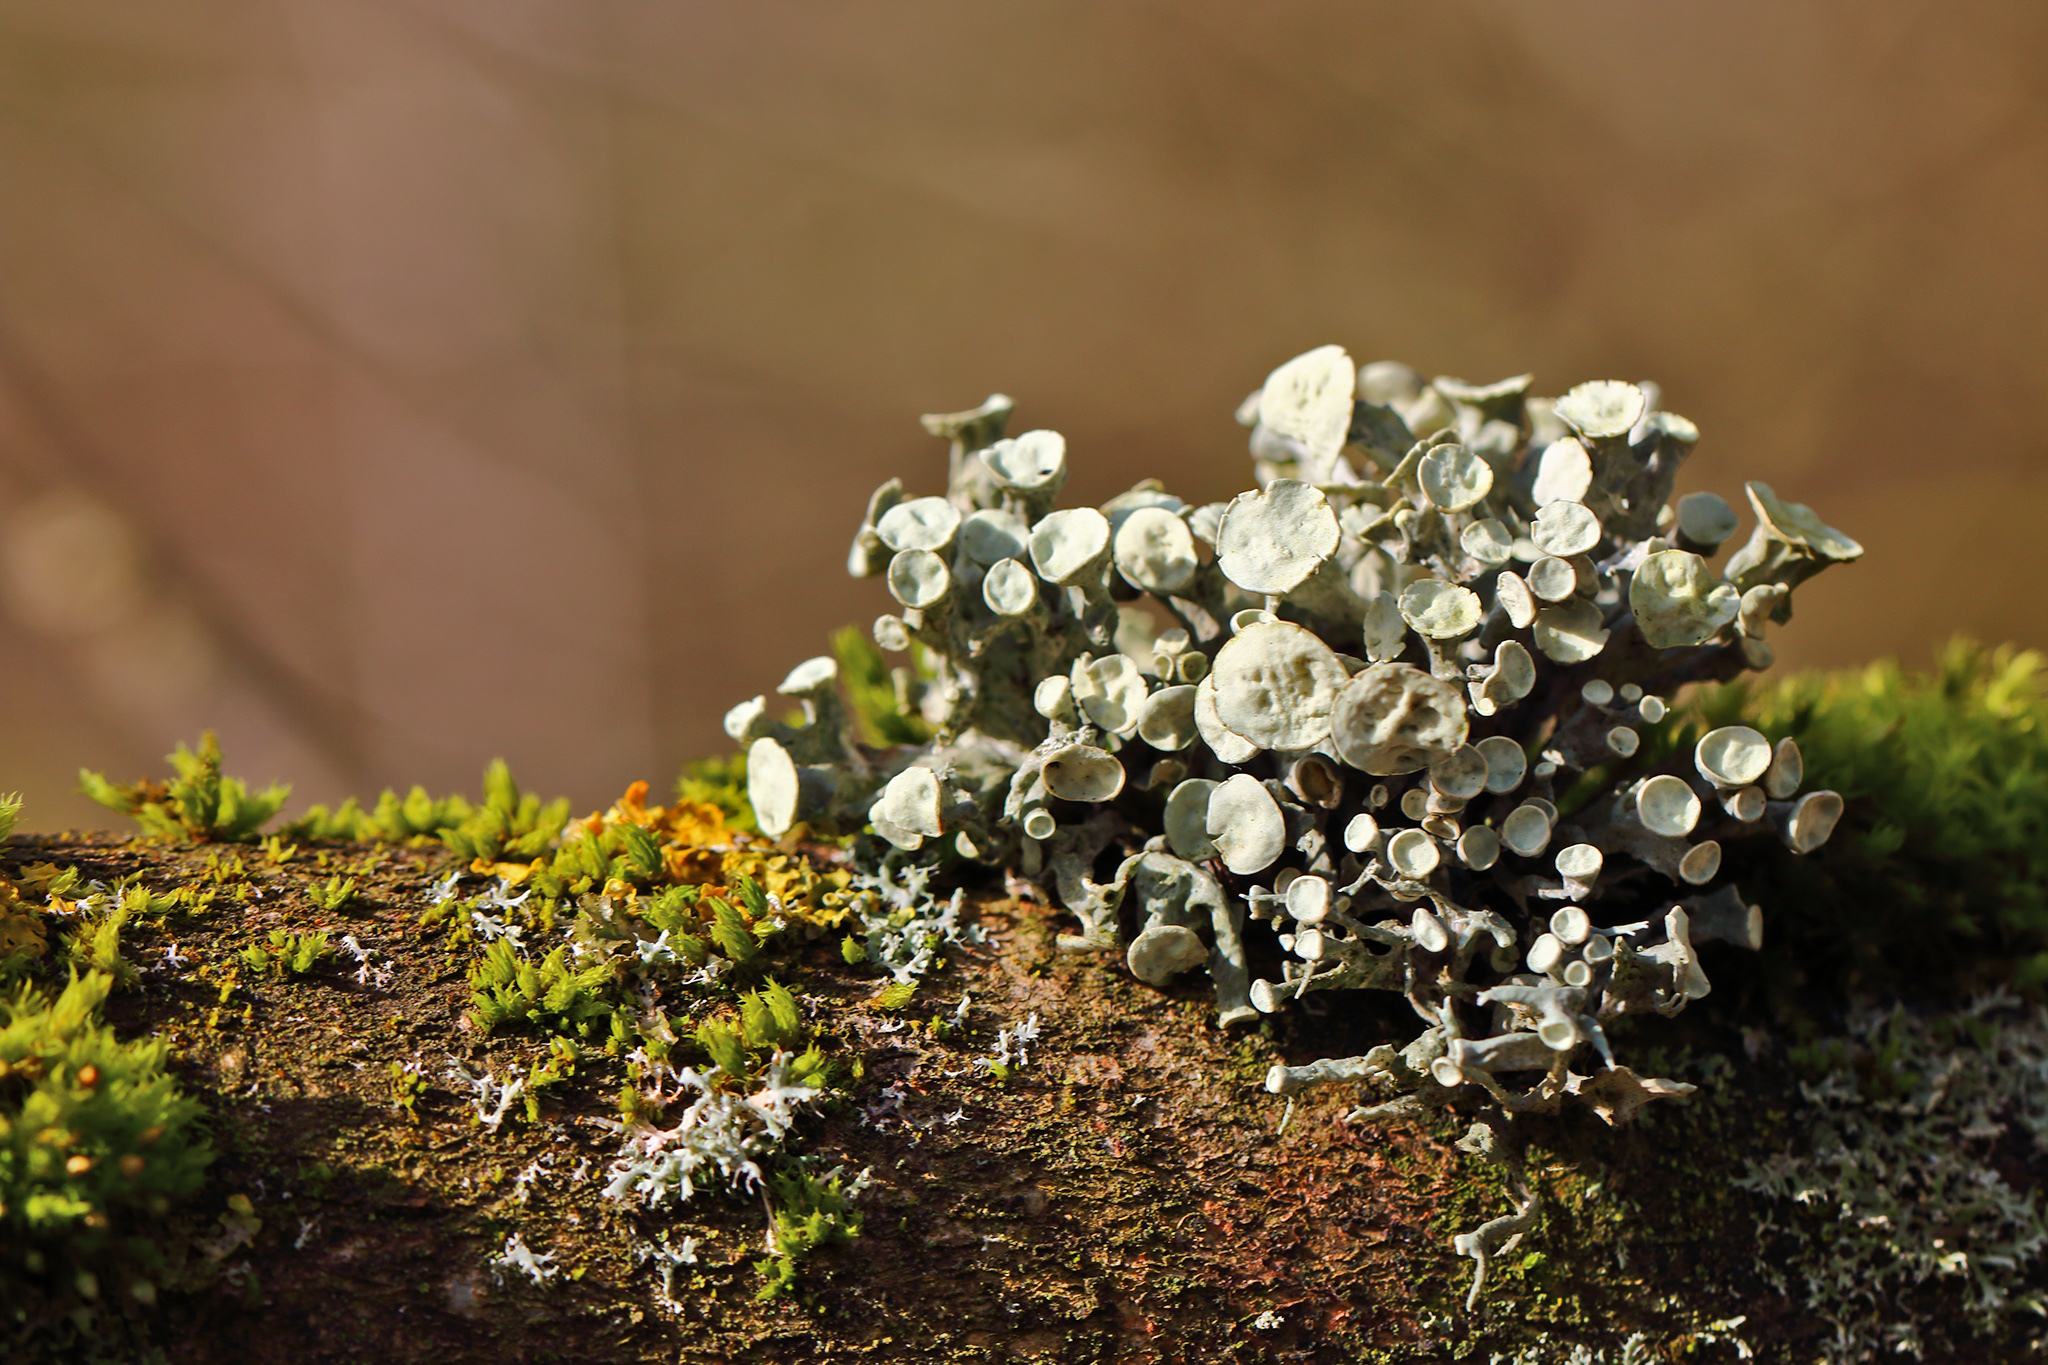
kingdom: Fungi
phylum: Ascomycota
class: Lecanoromycetes
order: Lecanorales
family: Ramalinaceae
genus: Ramalina
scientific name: Ramalina fastigiata
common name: Dotted ribbon lichen
